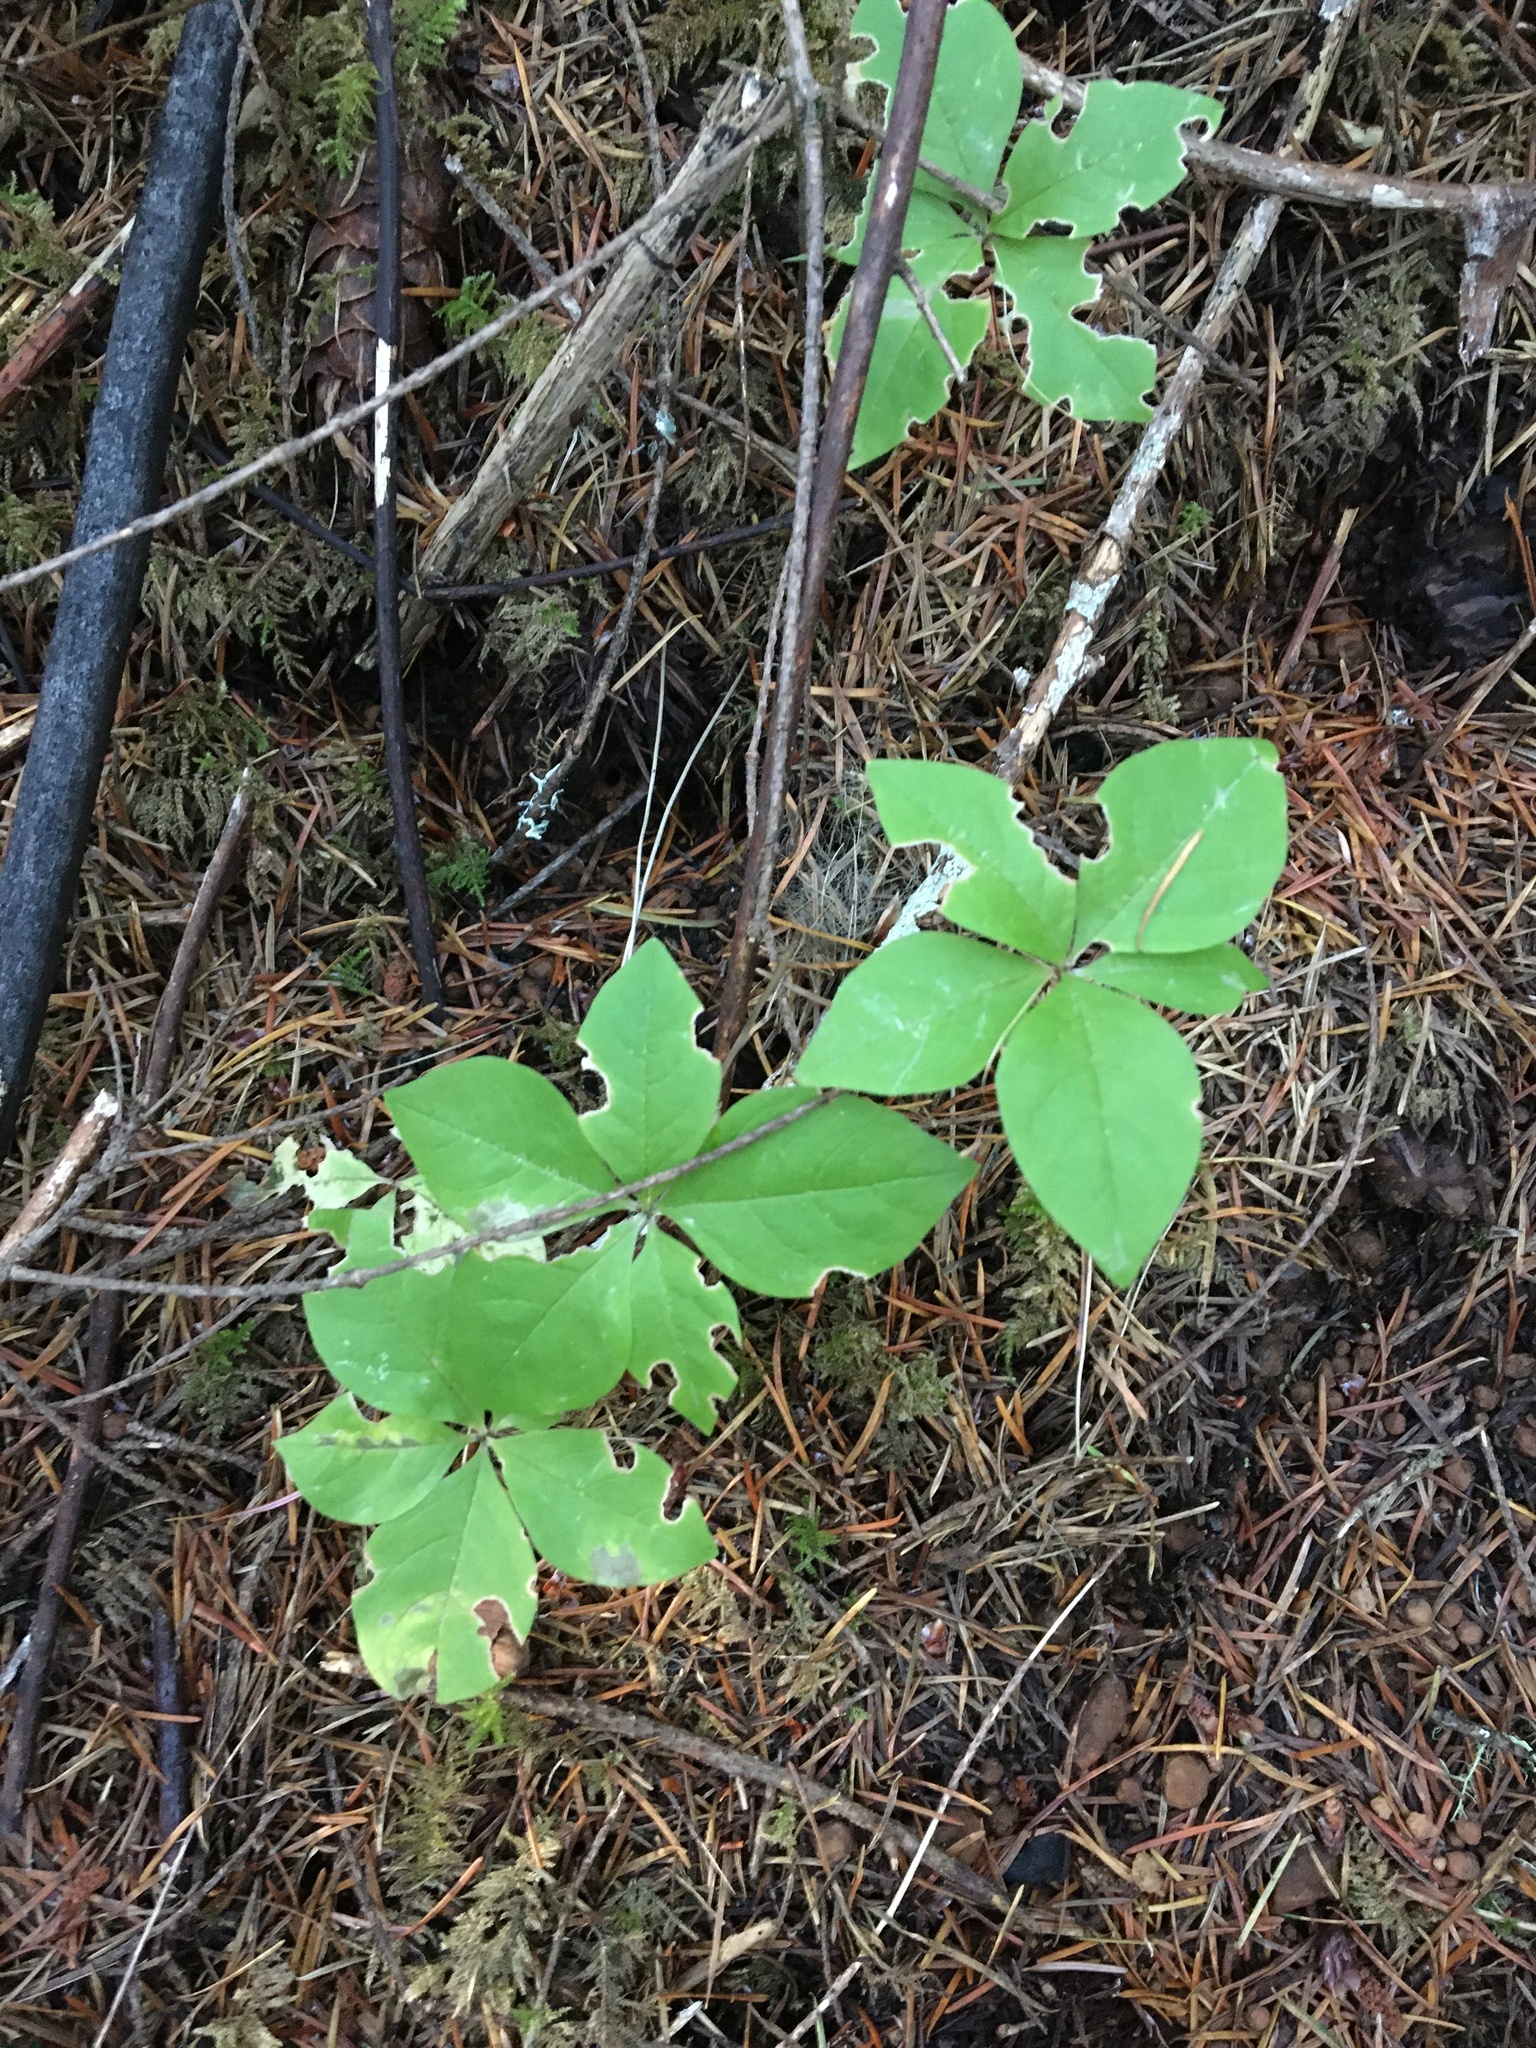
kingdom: Plantae
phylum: Tracheophyta
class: Magnoliopsida
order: Ericales
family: Primulaceae
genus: Lysimachia
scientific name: Lysimachia latifolia
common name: Pacific starflower
